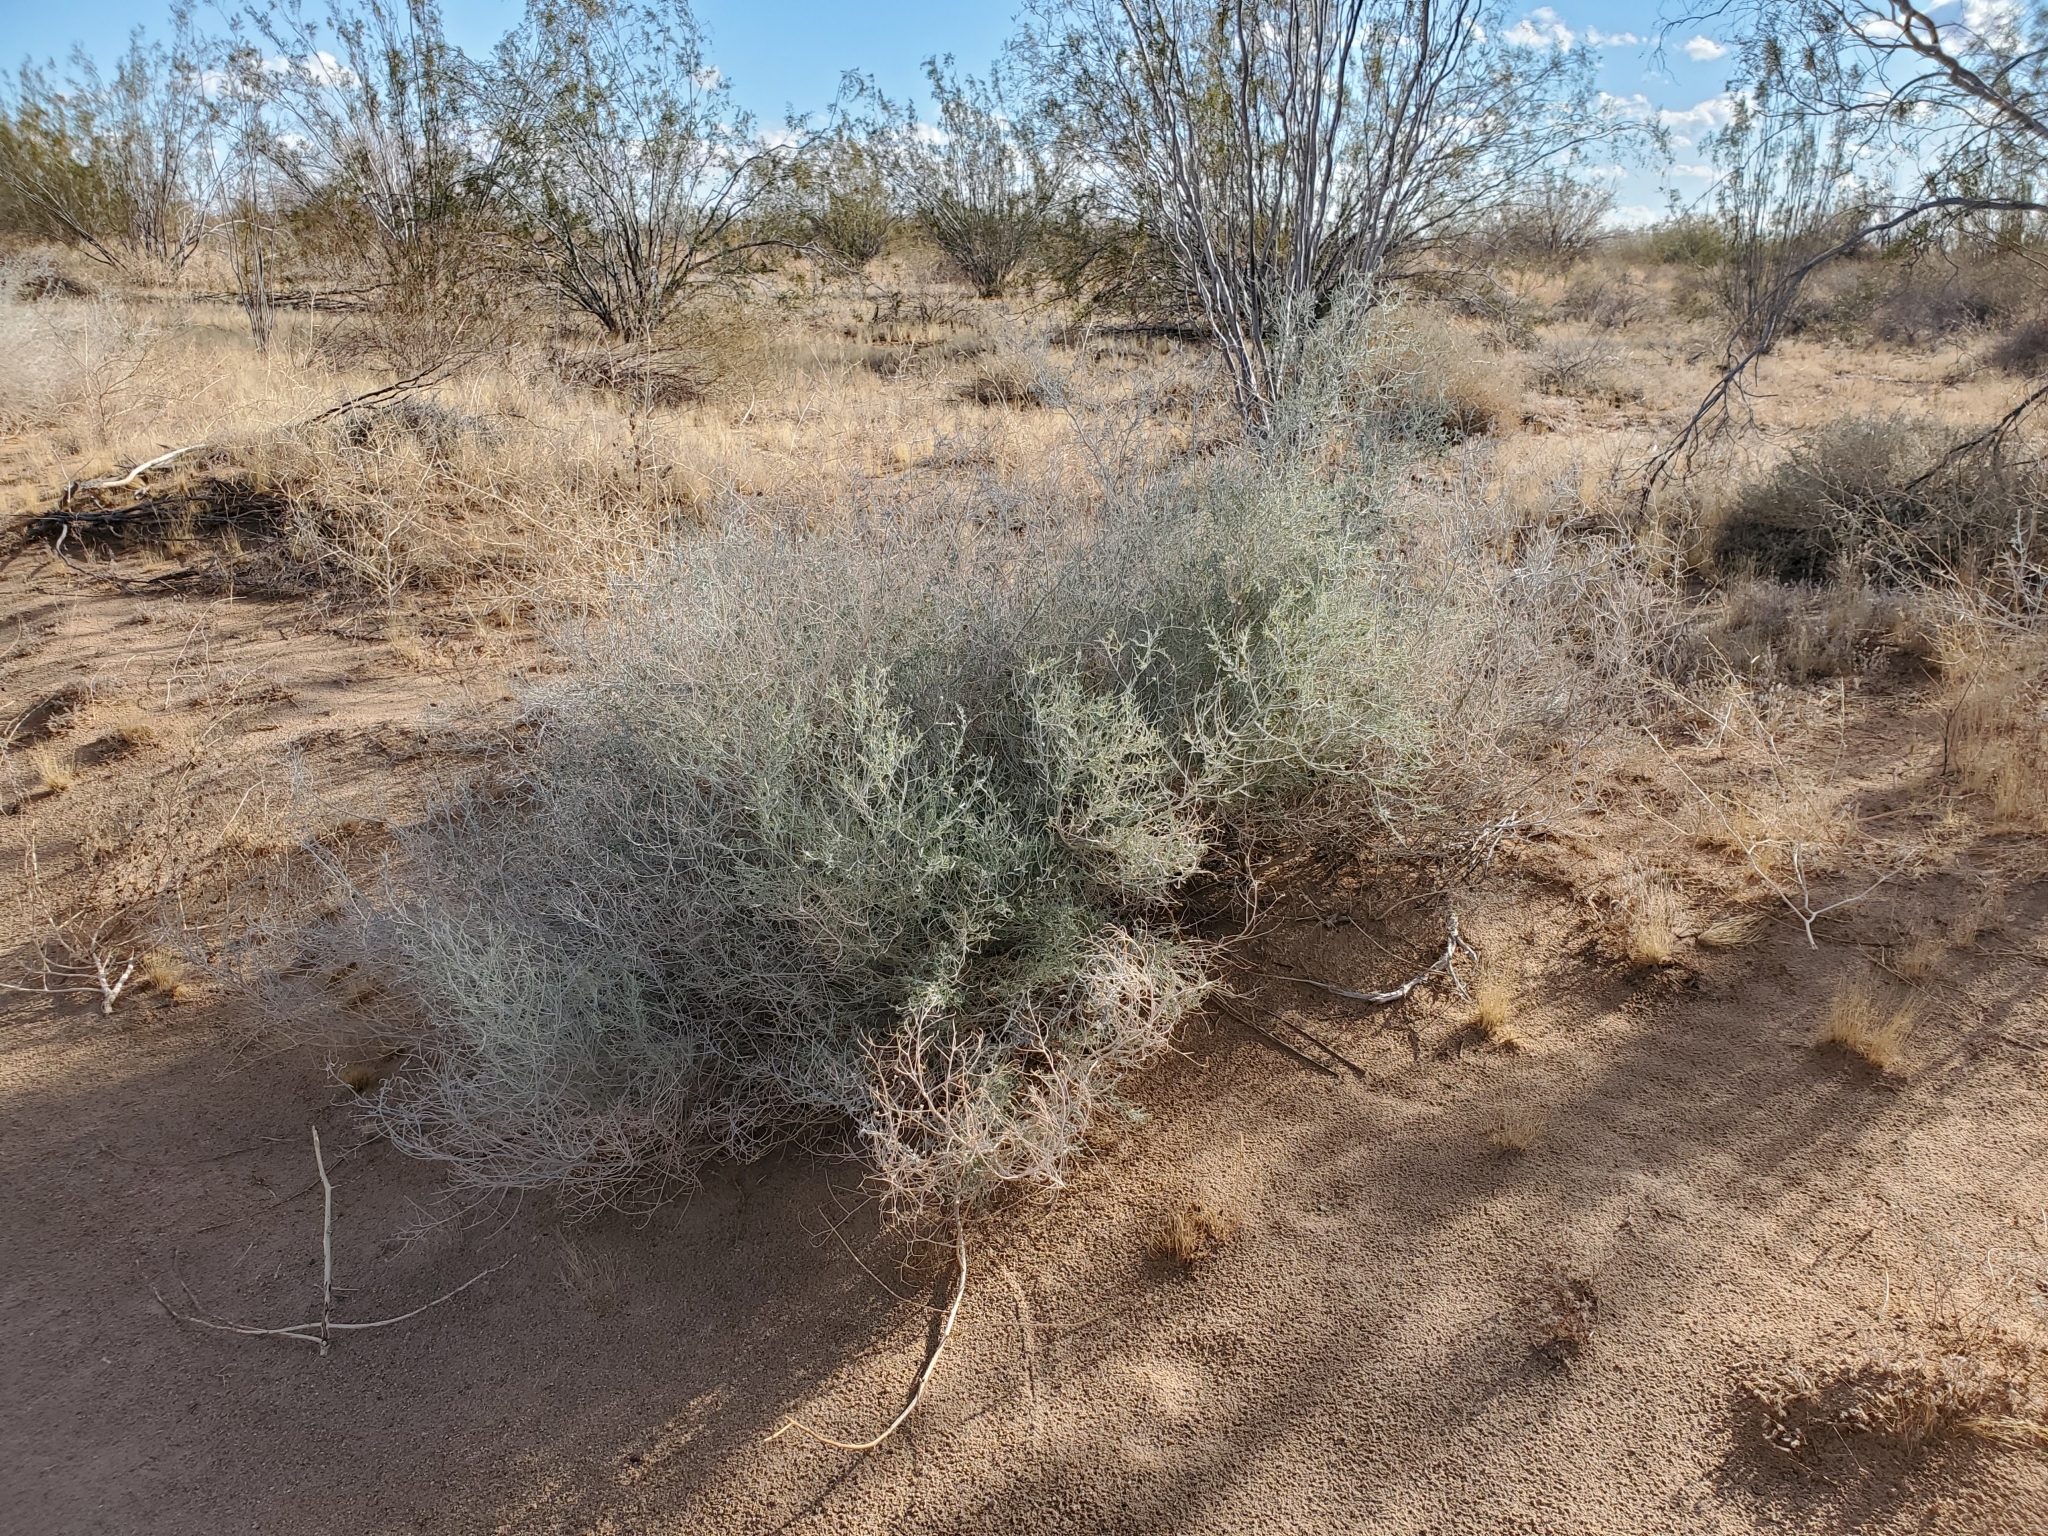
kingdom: Plantae
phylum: Tracheophyta
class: Magnoliopsida
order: Fabales
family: Fabaceae
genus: Psorothamnus
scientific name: Psorothamnus emoryi
